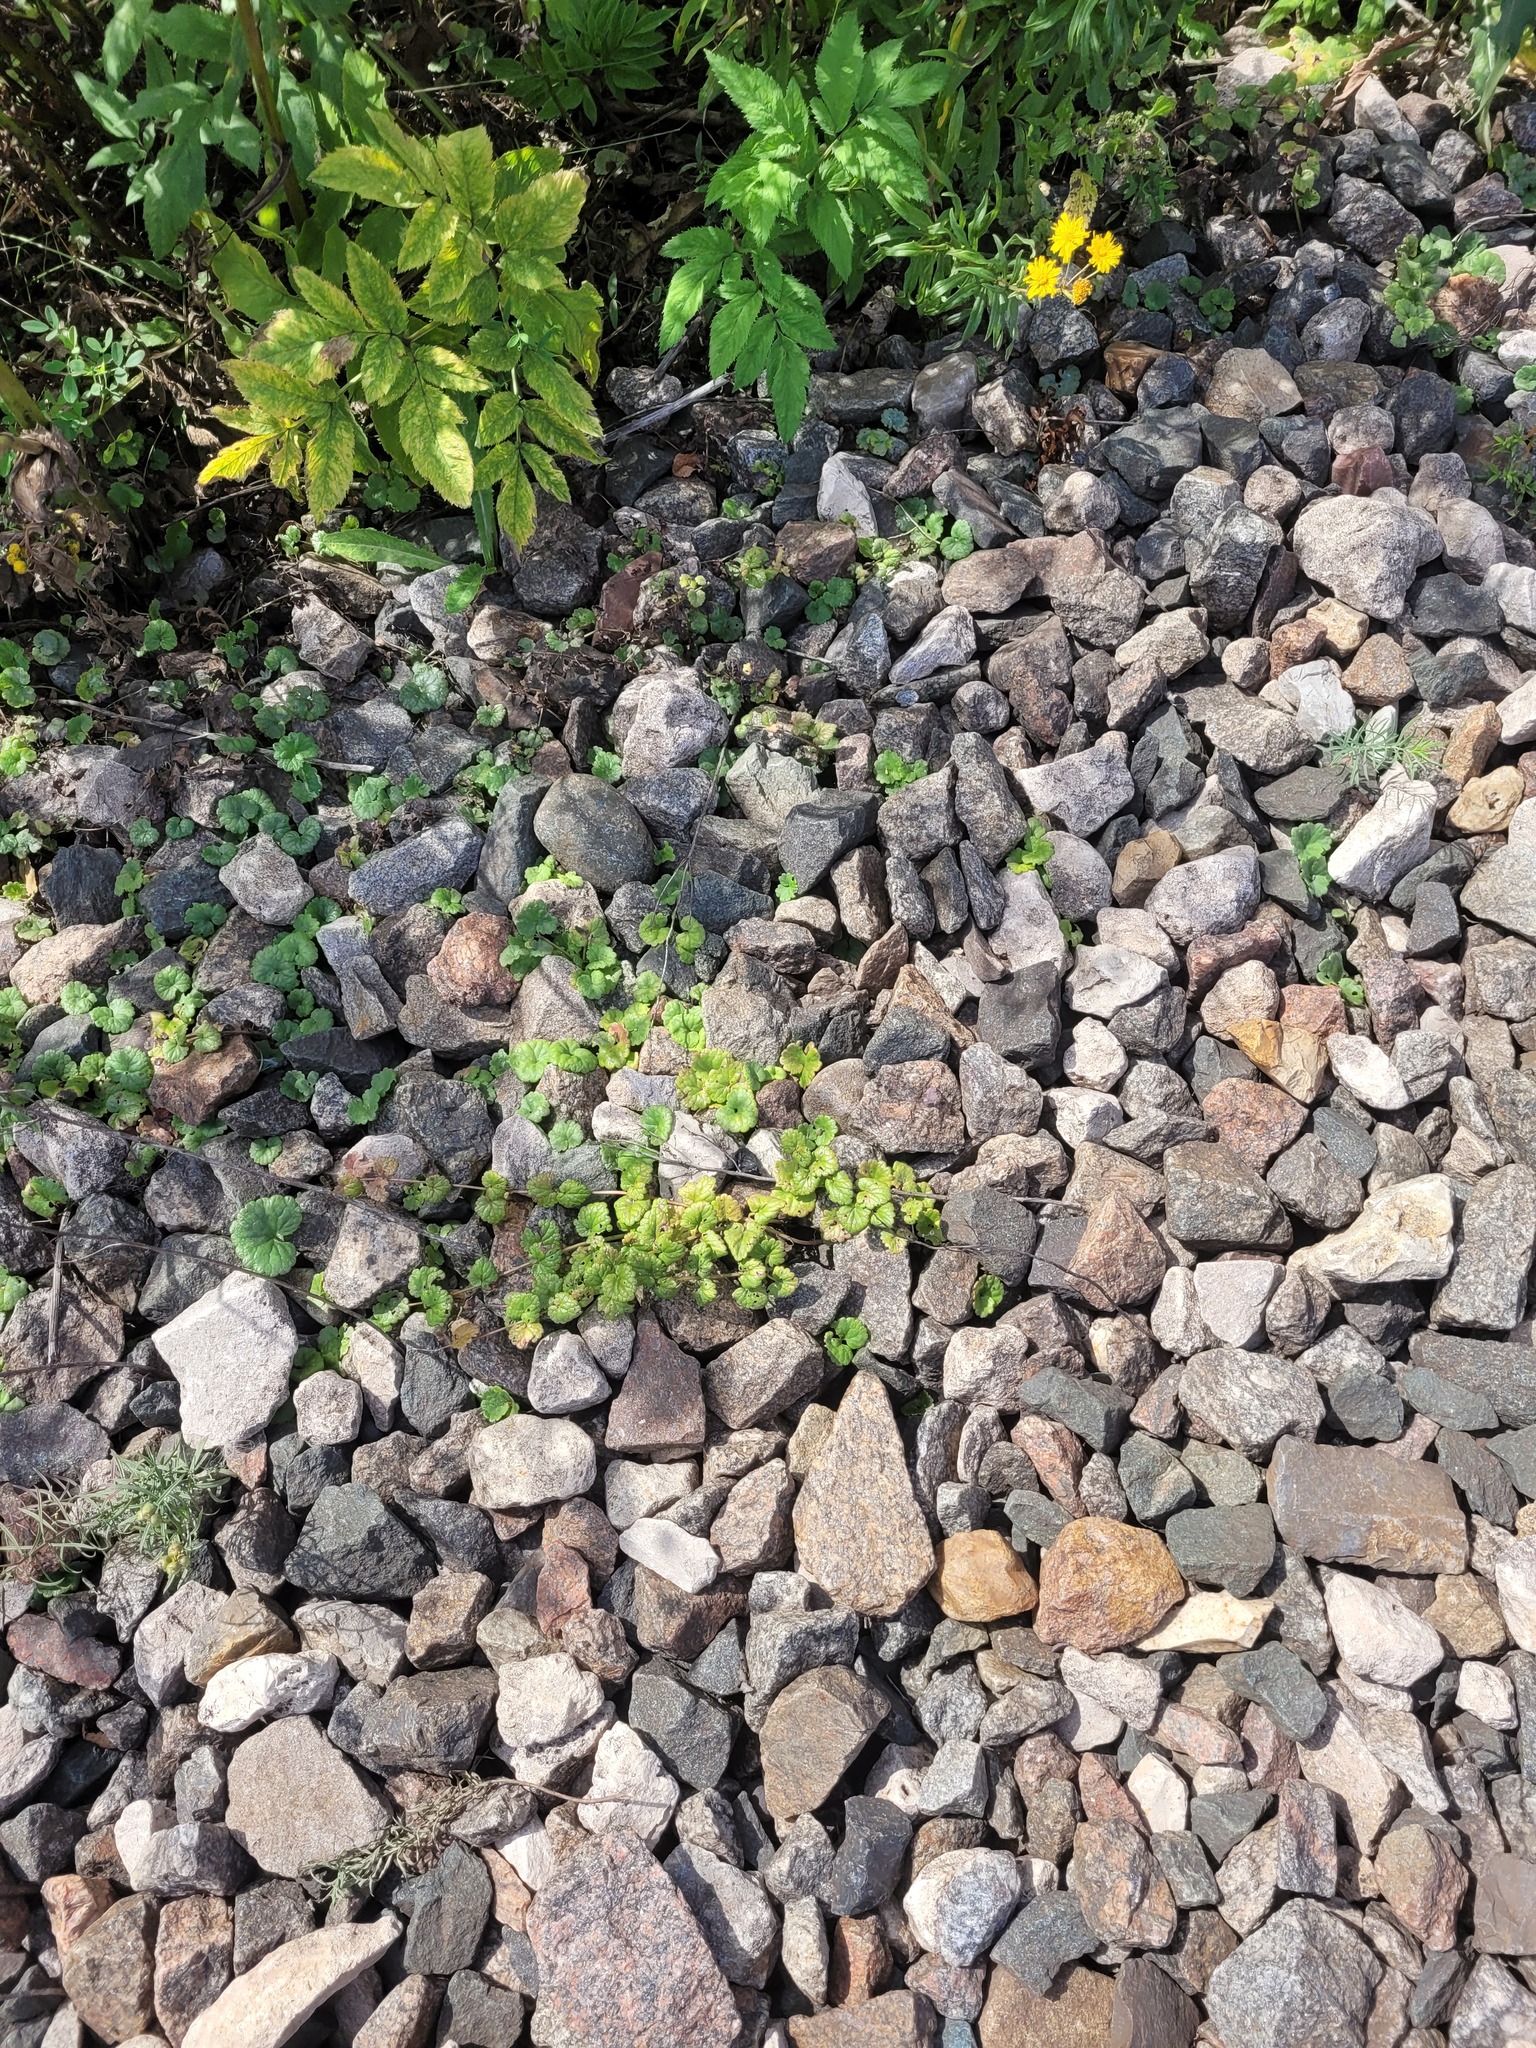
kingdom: Plantae
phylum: Tracheophyta
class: Magnoliopsida
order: Lamiales
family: Lamiaceae
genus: Glechoma
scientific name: Glechoma hederacea
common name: Ground ivy
